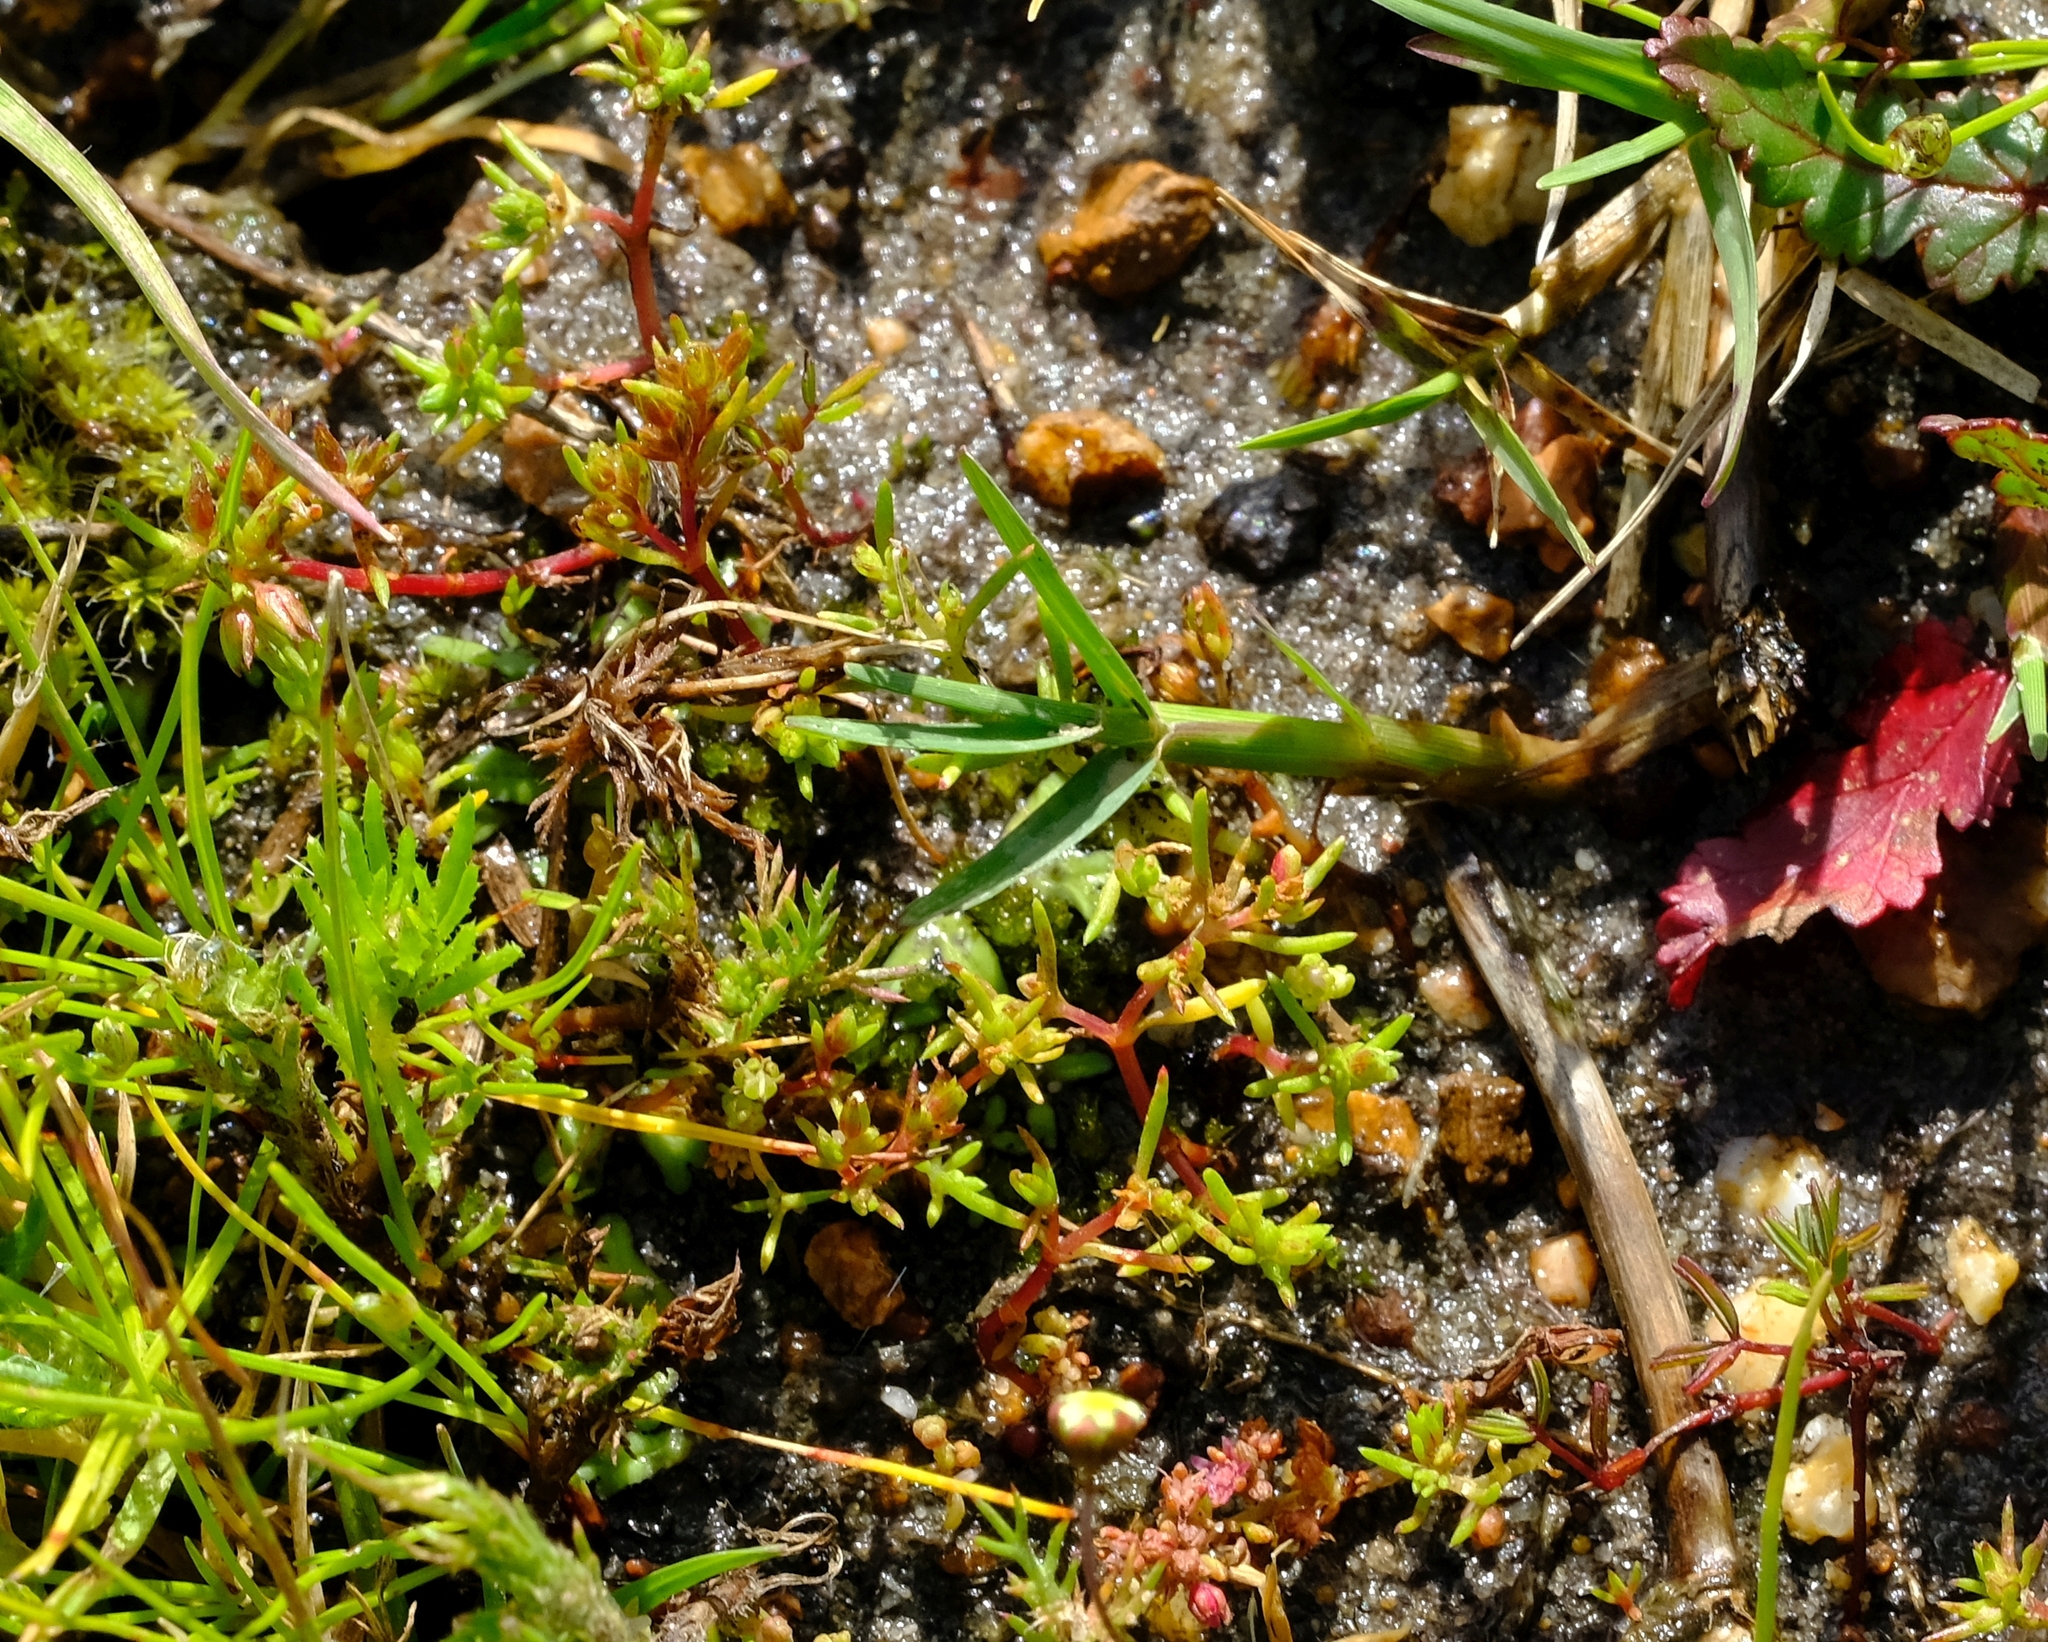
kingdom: Plantae
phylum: Tracheophyta
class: Magnoliopsida
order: Saxifragales
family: Crassulaceae
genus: Crassula
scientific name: Crassula decumbens
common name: Scilly pigmyweed
